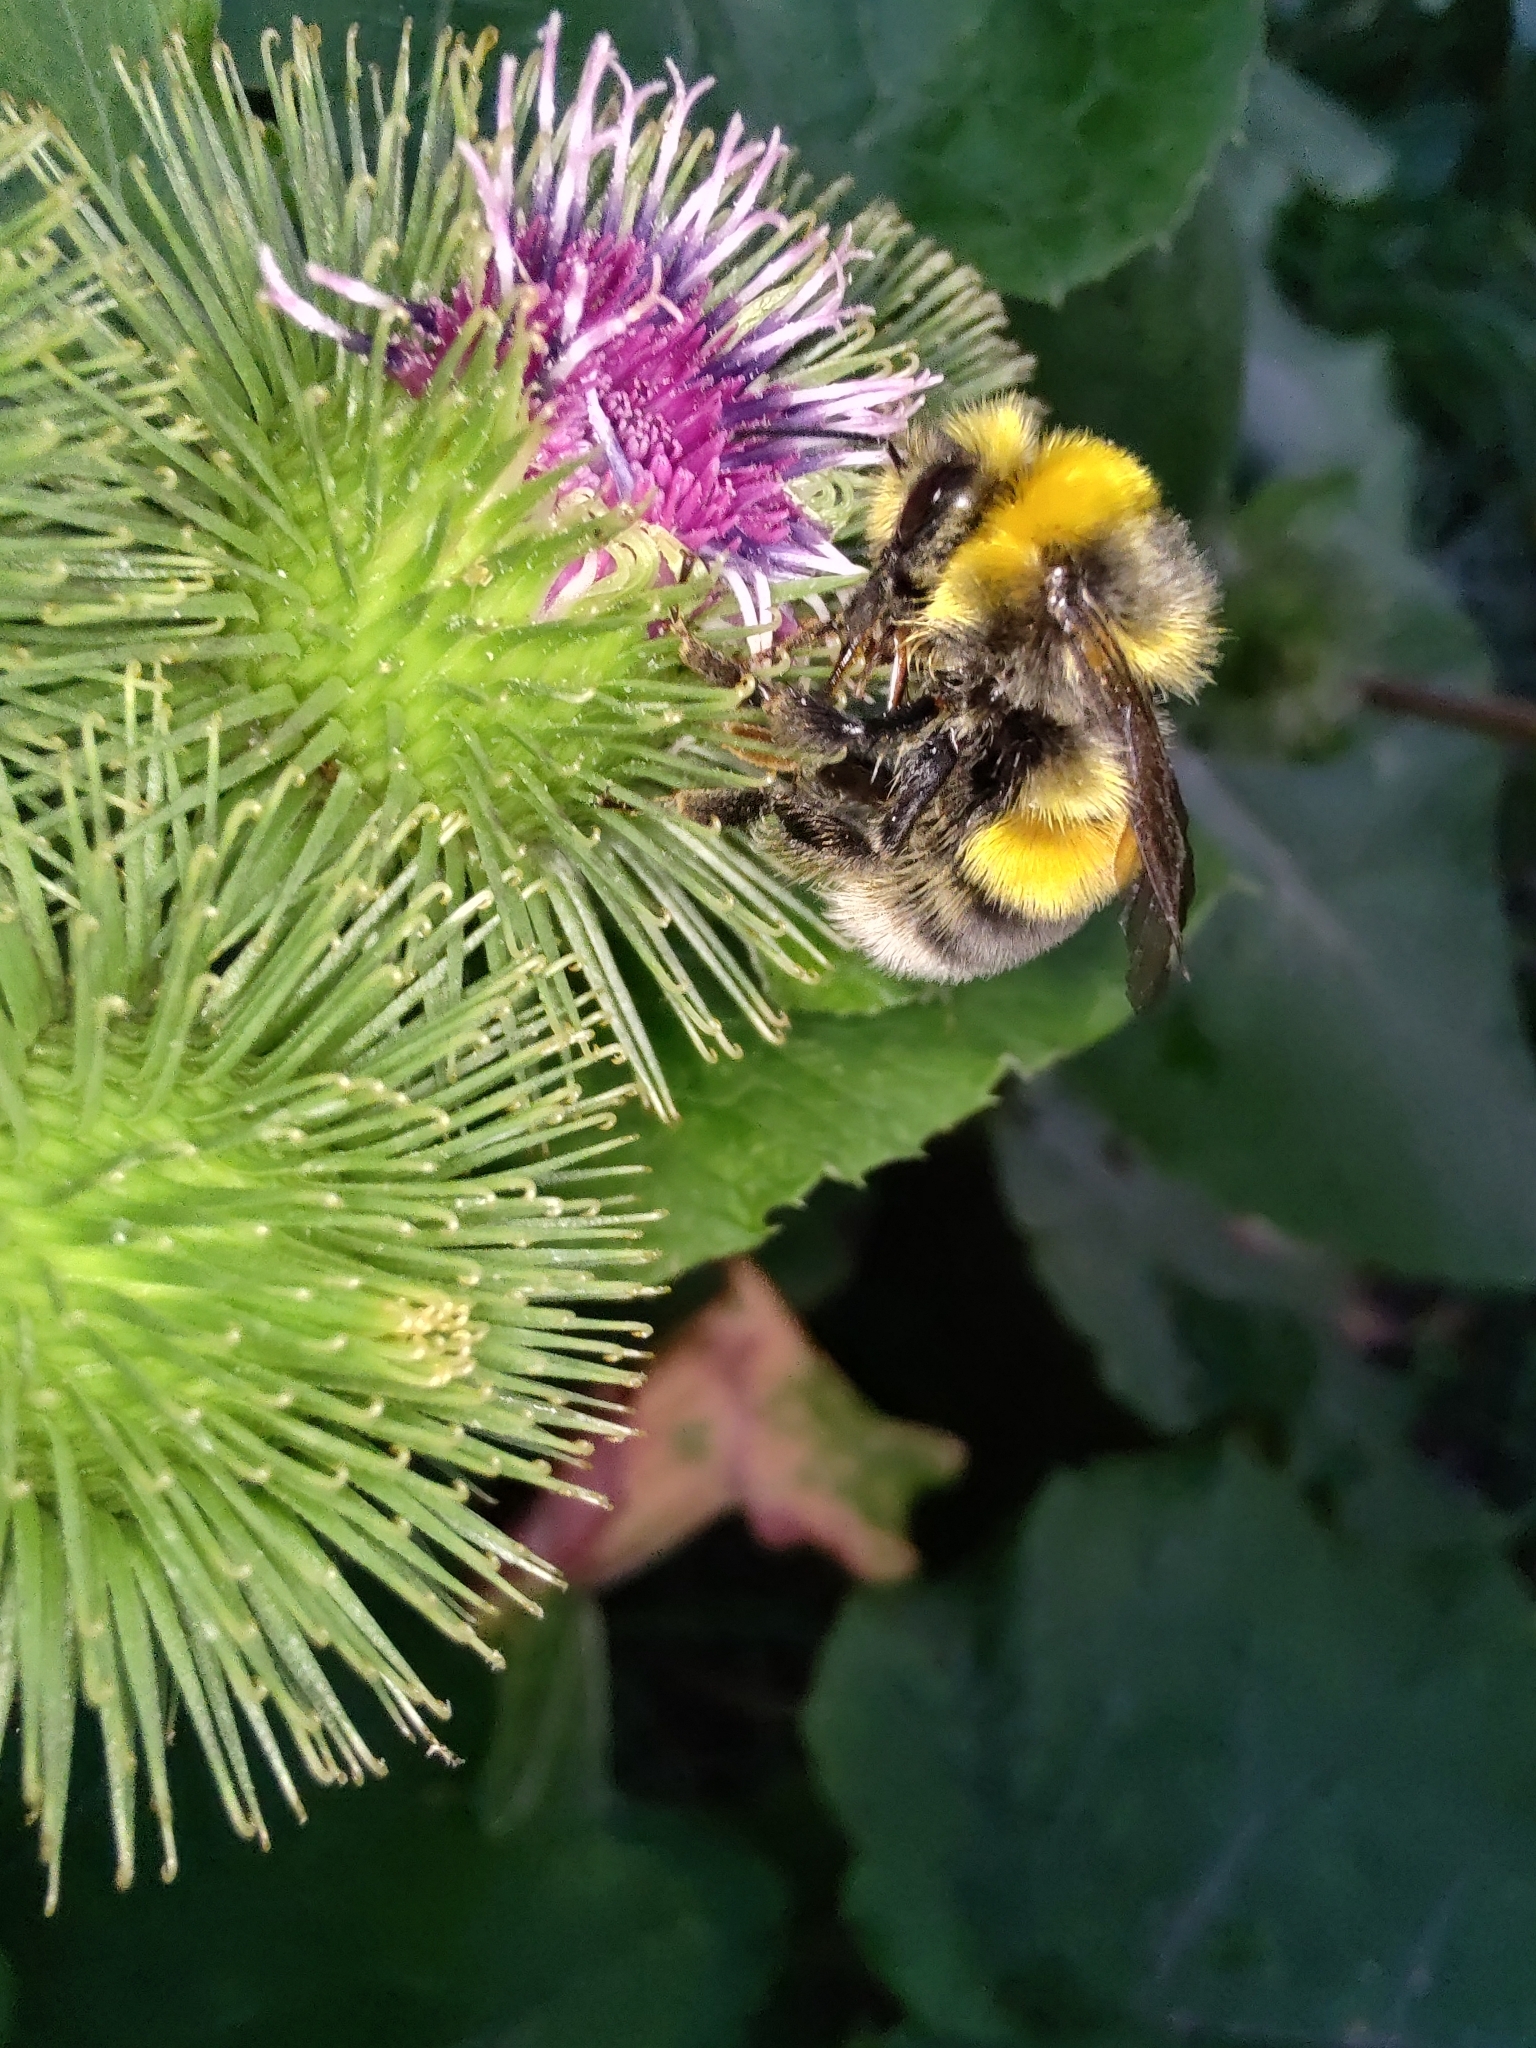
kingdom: Animalia
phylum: Arthropoda
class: Insecta
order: Hymenoptera
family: Apidae
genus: Bombus
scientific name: Bombus lucorum
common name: White-tailed bumblebee
